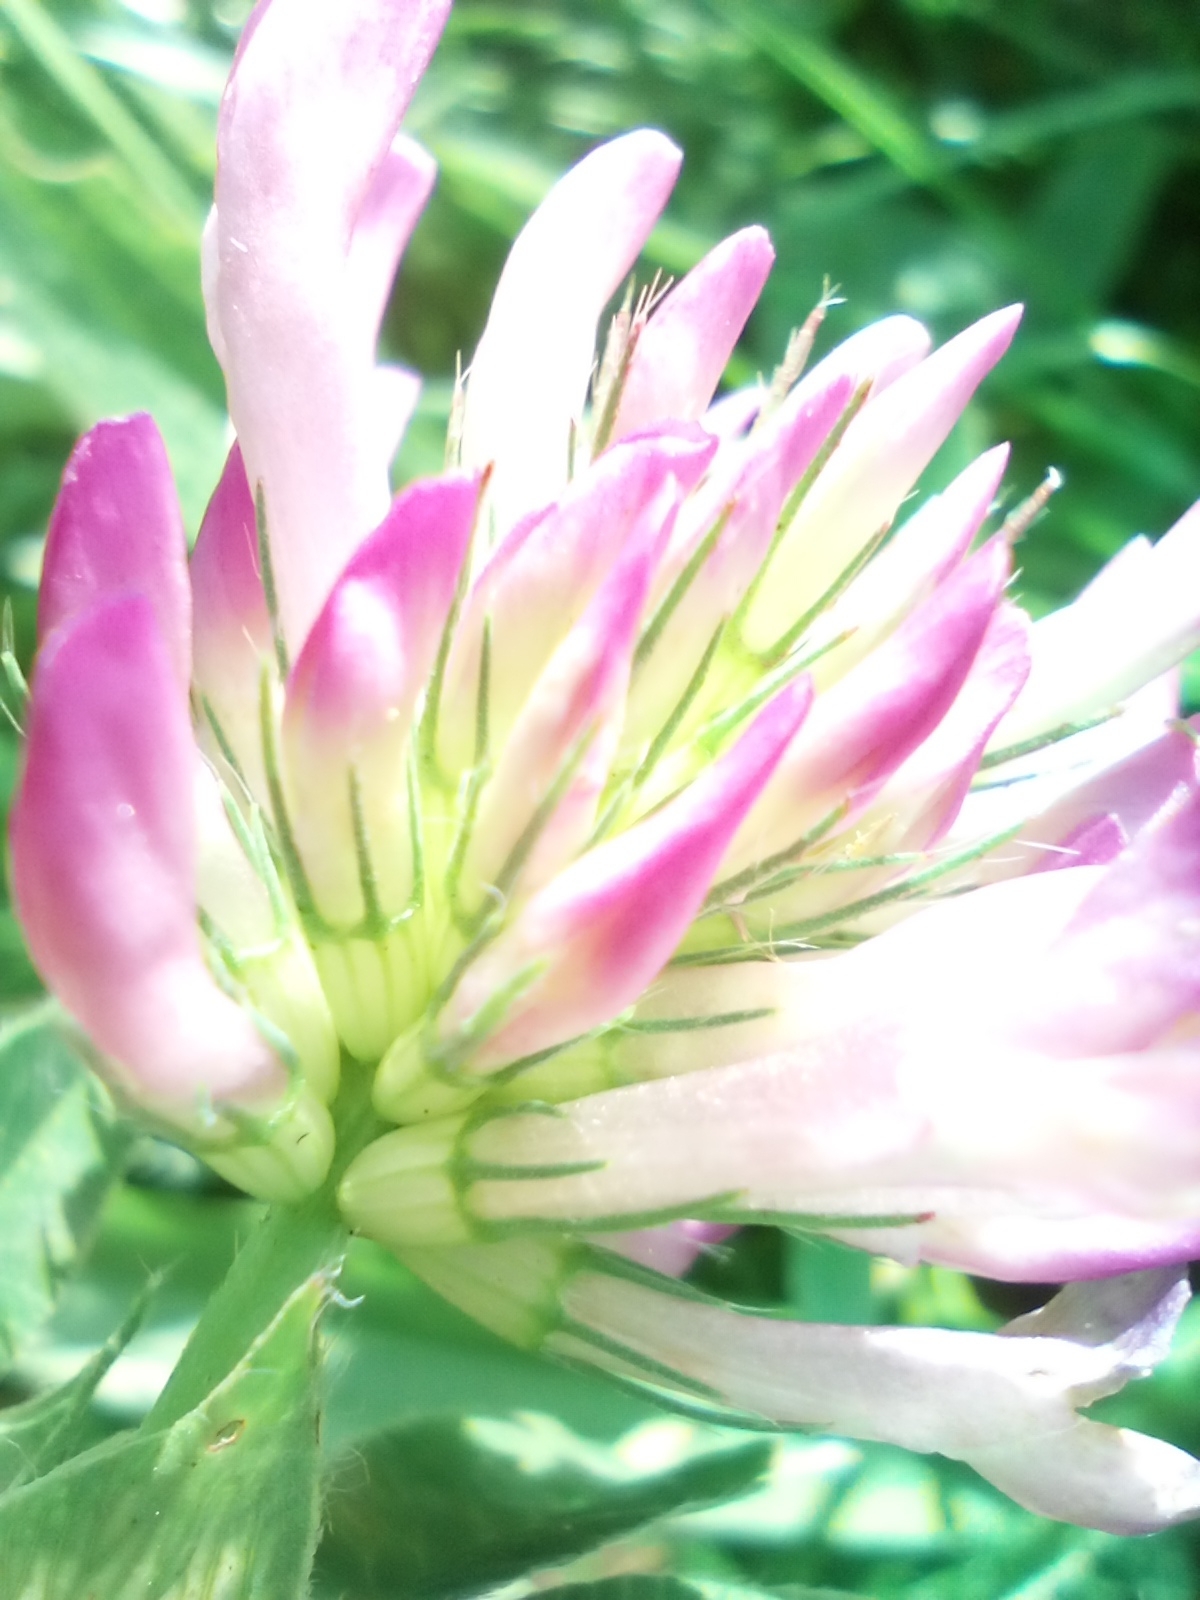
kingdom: Plantae
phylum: Tracheophyta
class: Magnoliopsida
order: Fabales
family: Fabaceae
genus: Trifolium
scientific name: Trifolium medium
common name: Zigzag clover
